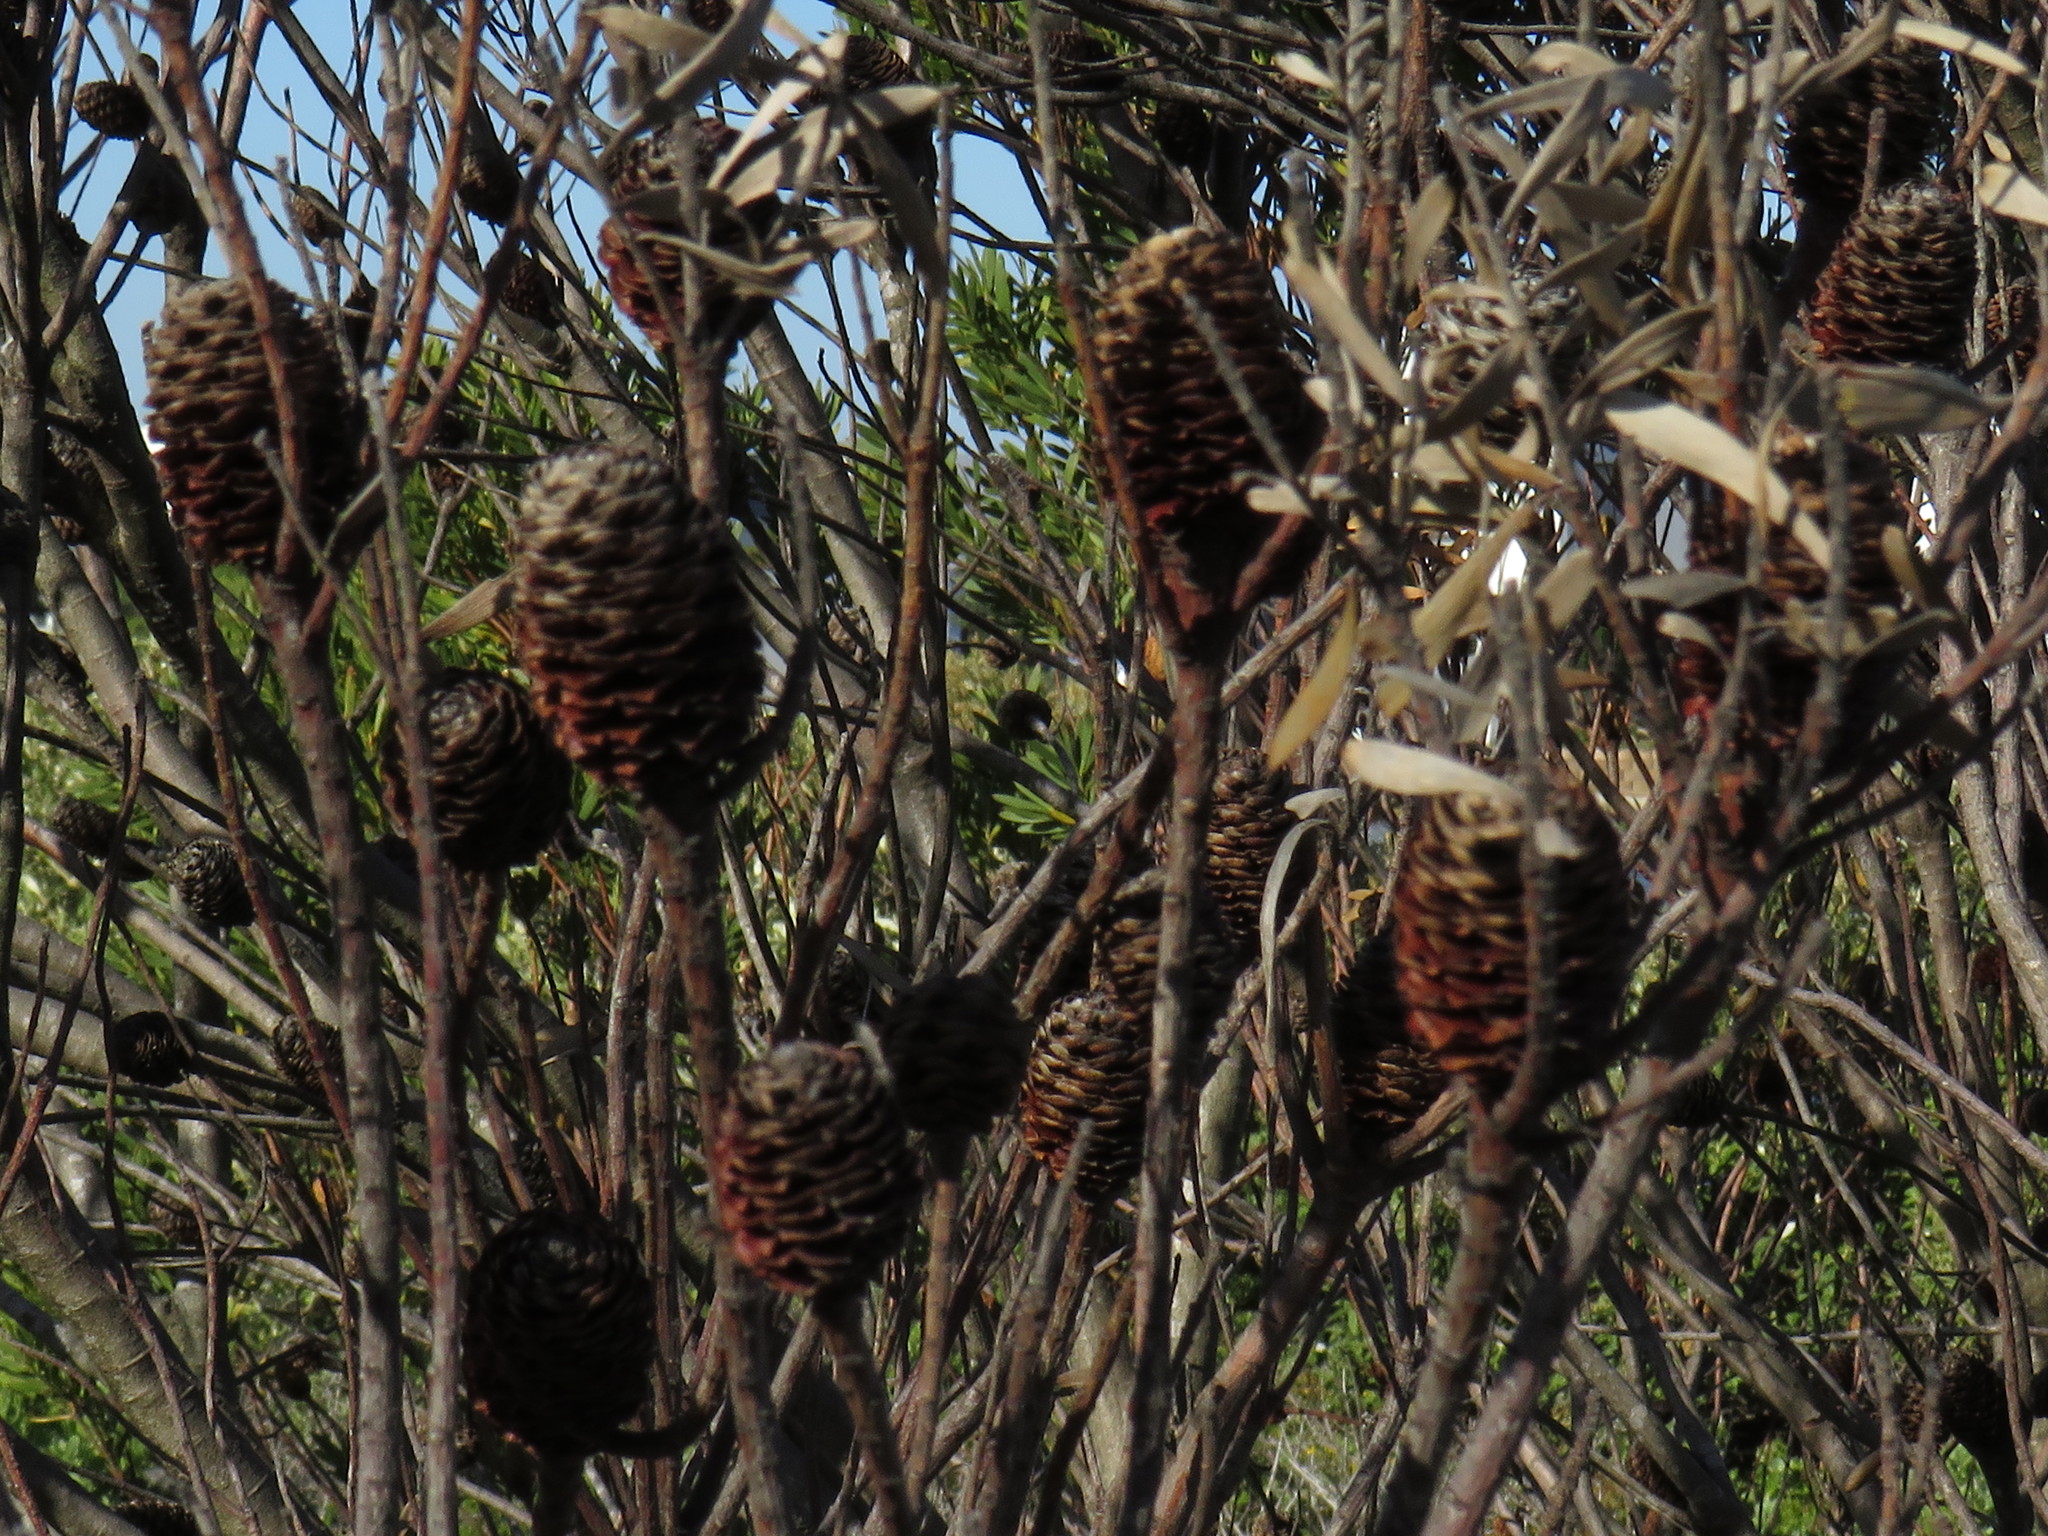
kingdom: Plantae
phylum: Tracheophyta
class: Magnoliopsida
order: Proteales
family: Proteaceae
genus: Leucadendron
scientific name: Leucadendron coniferum
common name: Dune conebush
